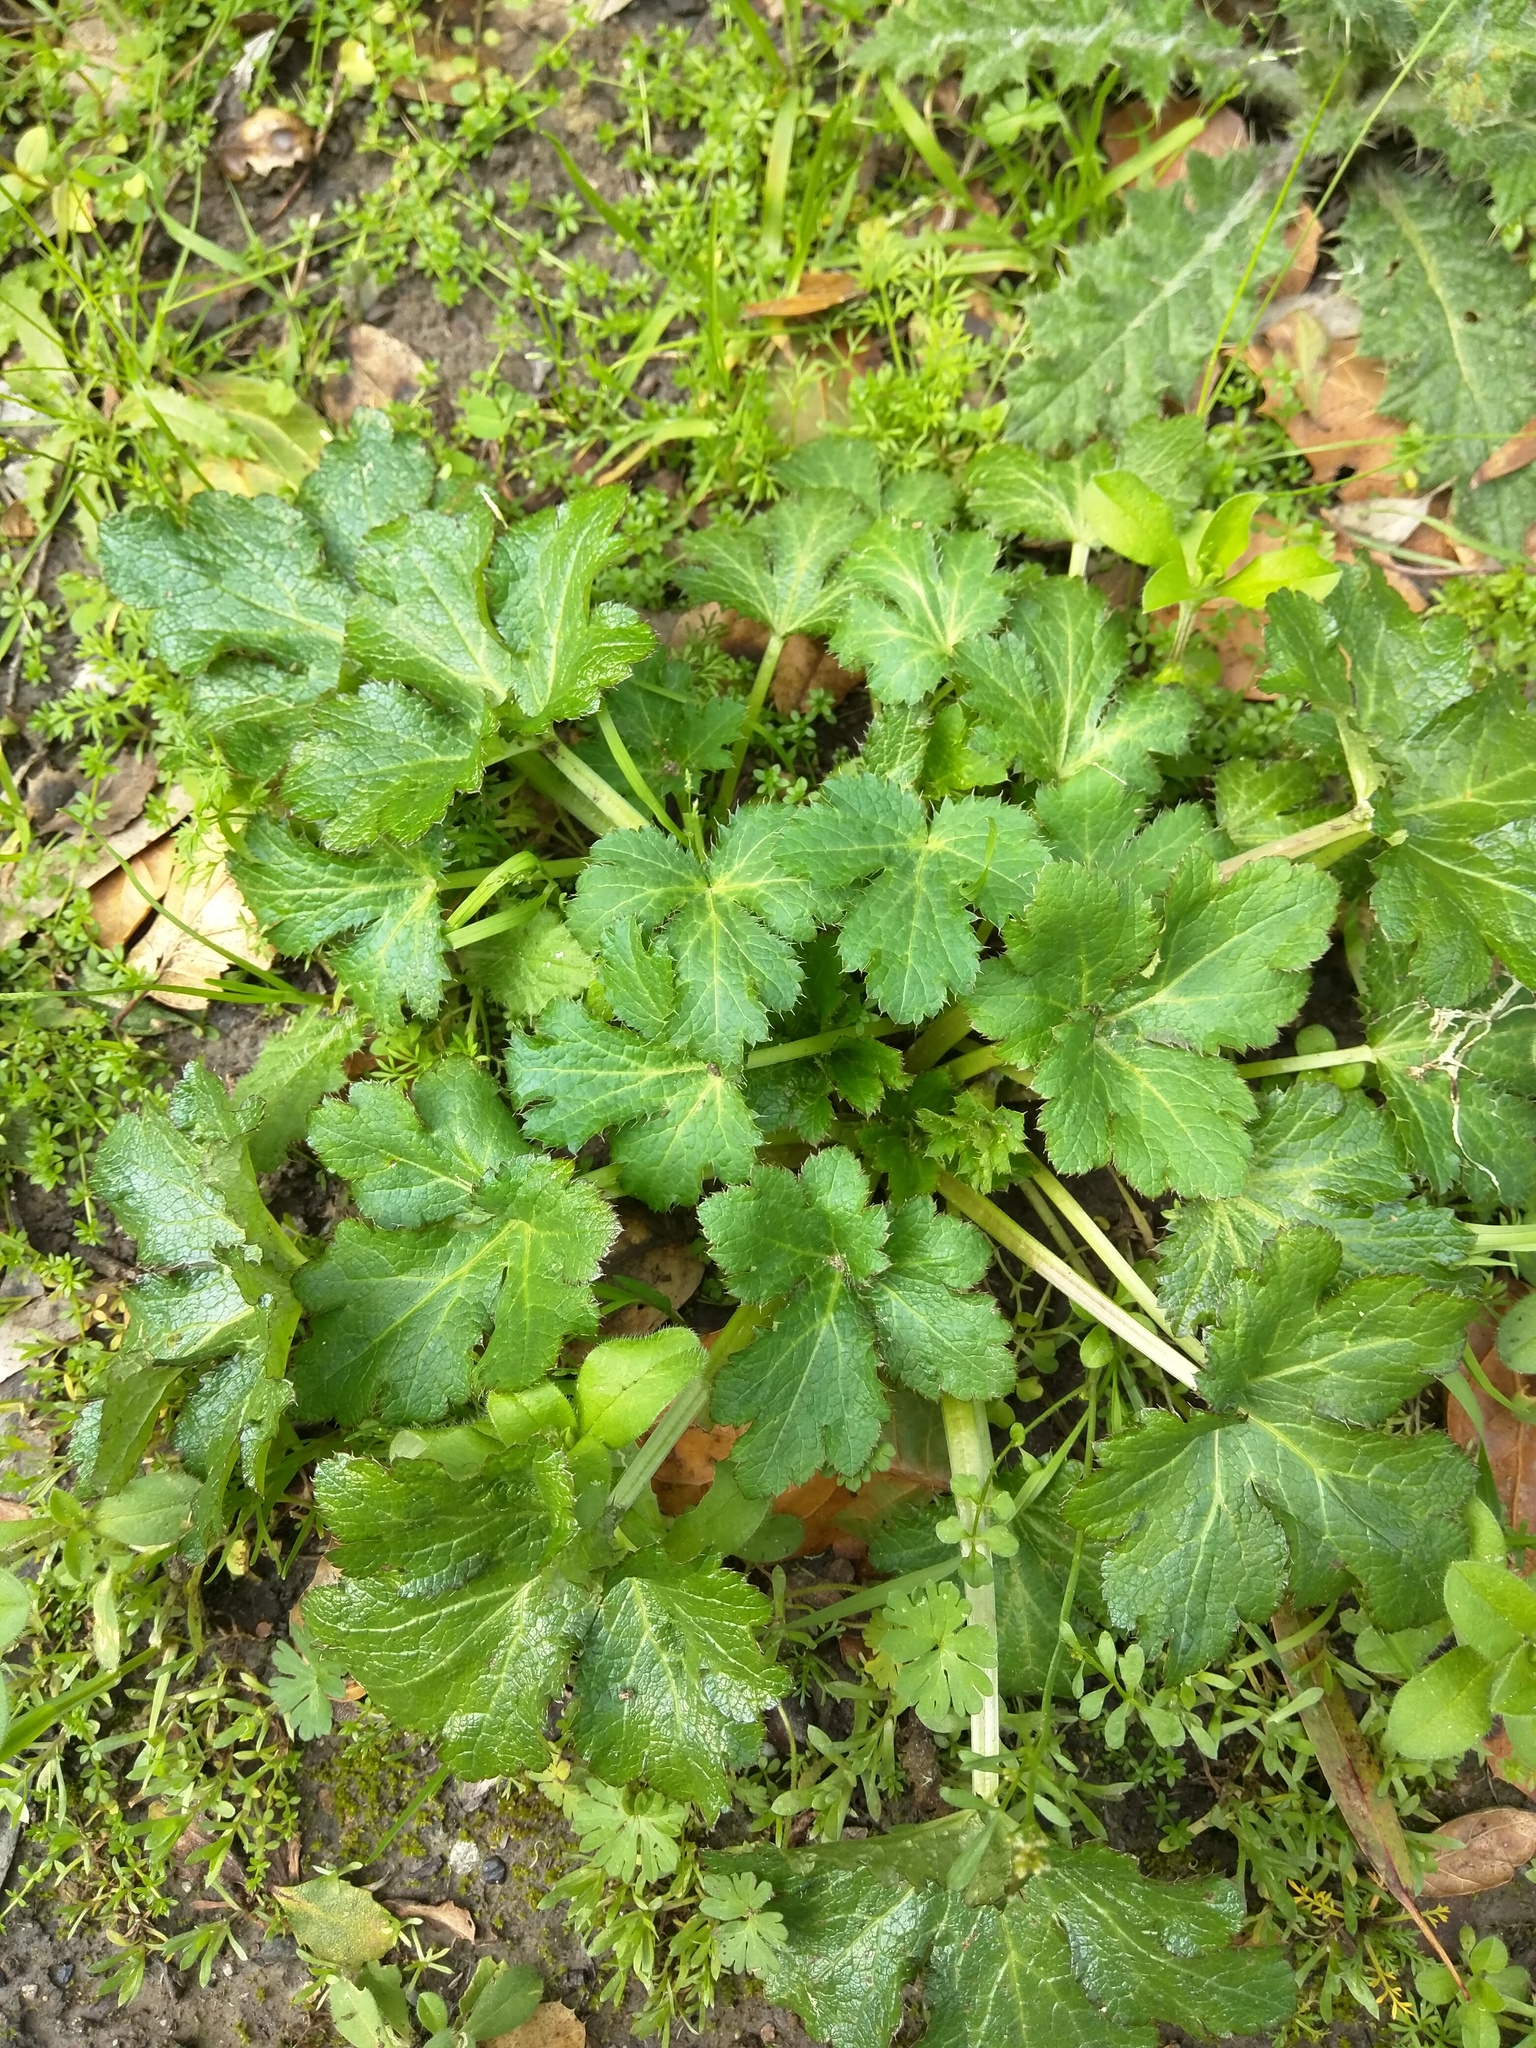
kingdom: Plantae
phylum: Tracheophyta
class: Magnoliopsida
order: Apiales
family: Apiaceae
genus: Sanicula
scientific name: Sanicula crassicaulis
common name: Western snakeroot
